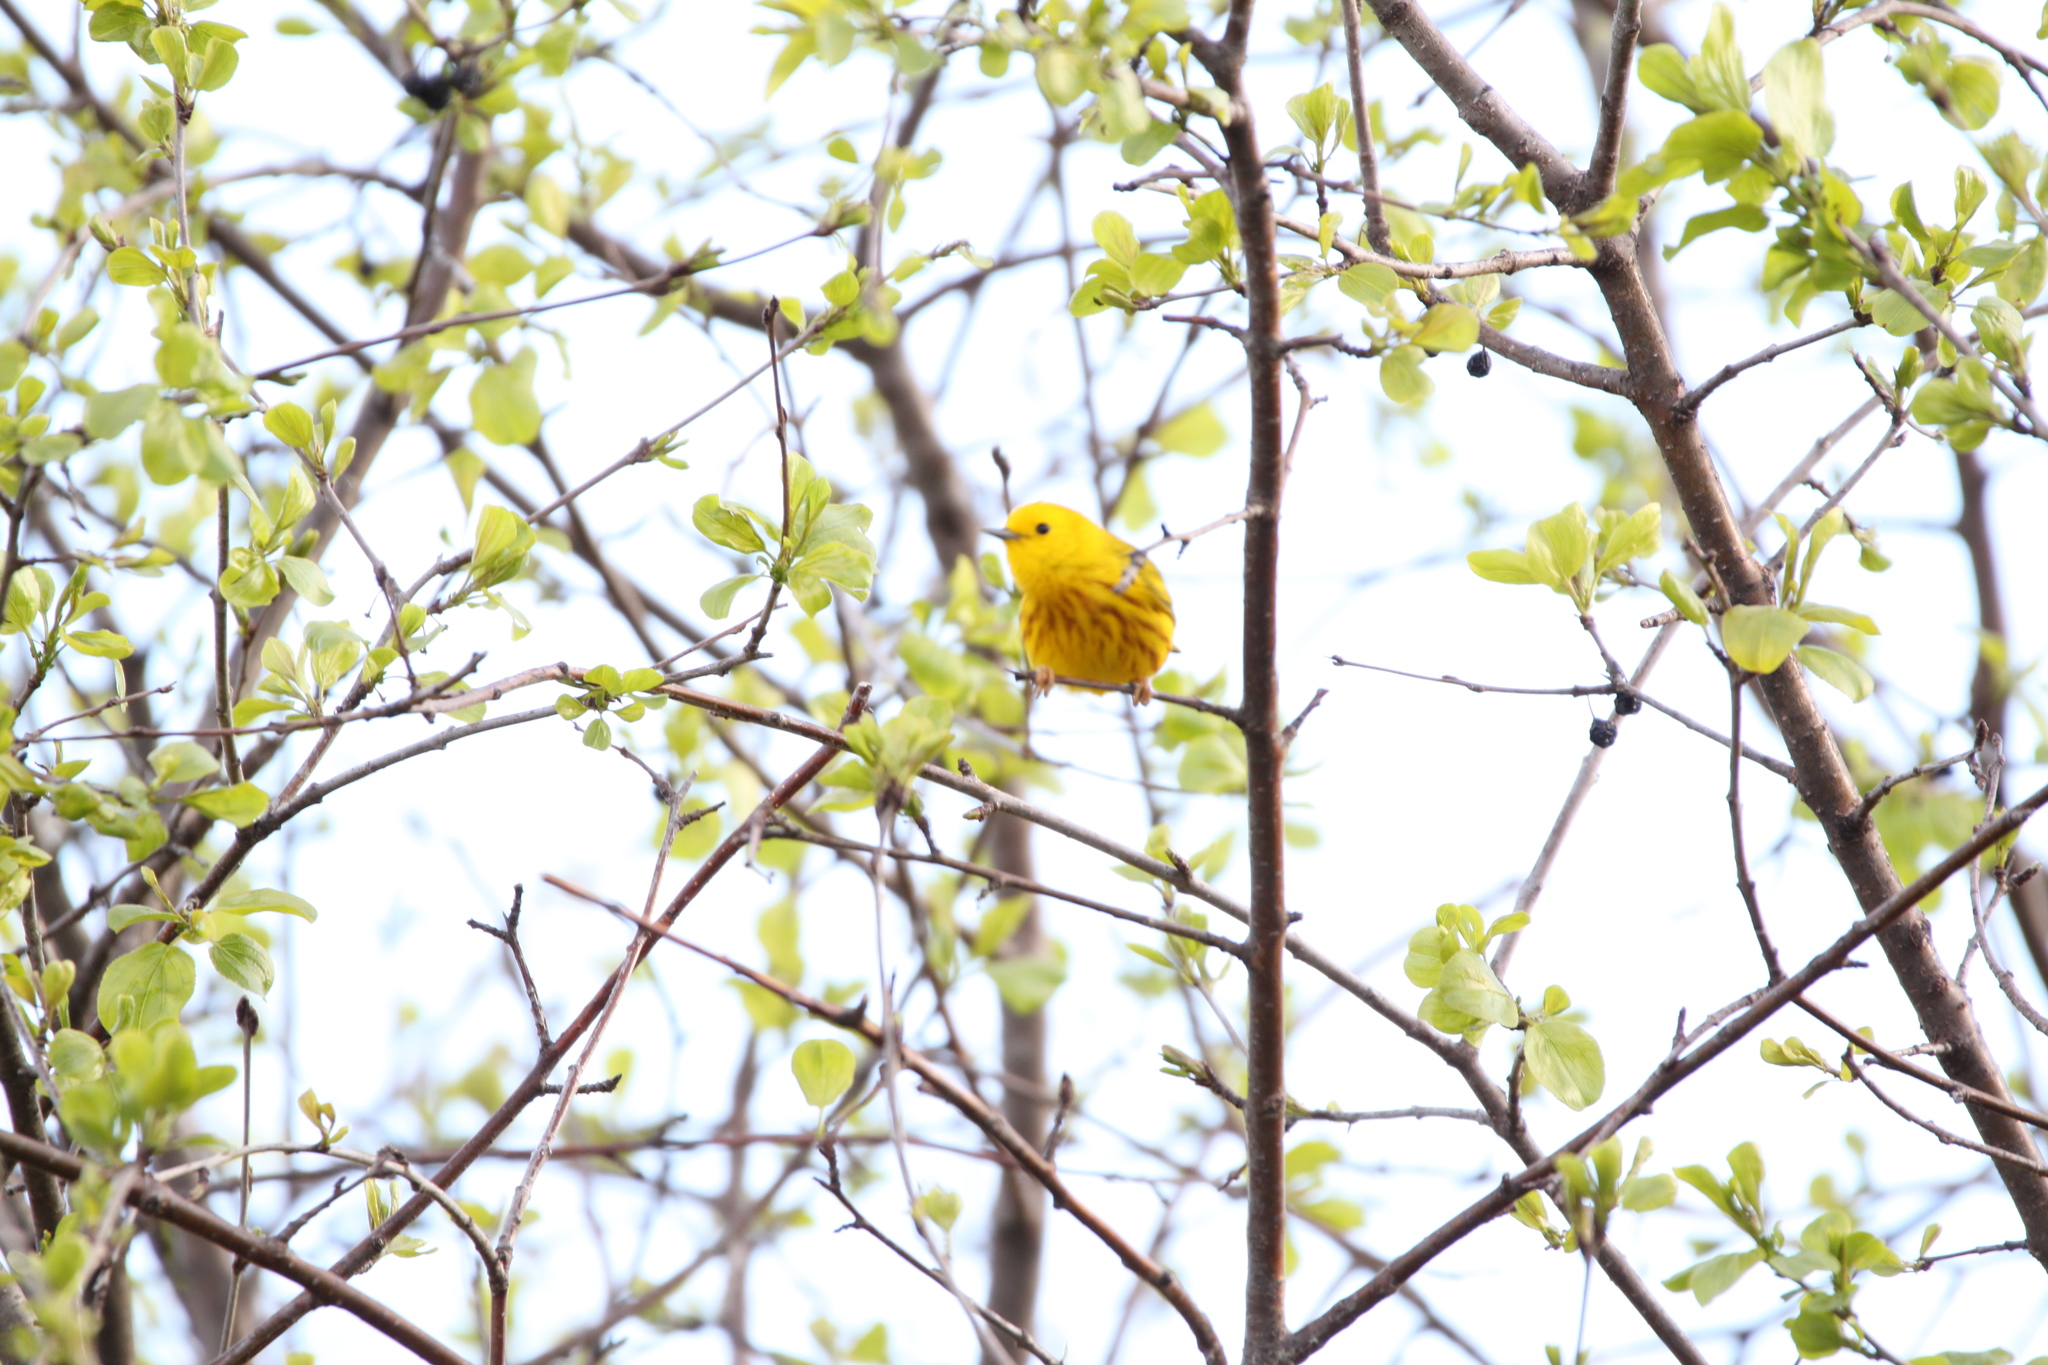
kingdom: Animalia
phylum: Chordata
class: Aves
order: Passeriformes
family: Parulidae
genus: Setophaga
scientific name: Setophaga petechia
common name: Yellow warbler
